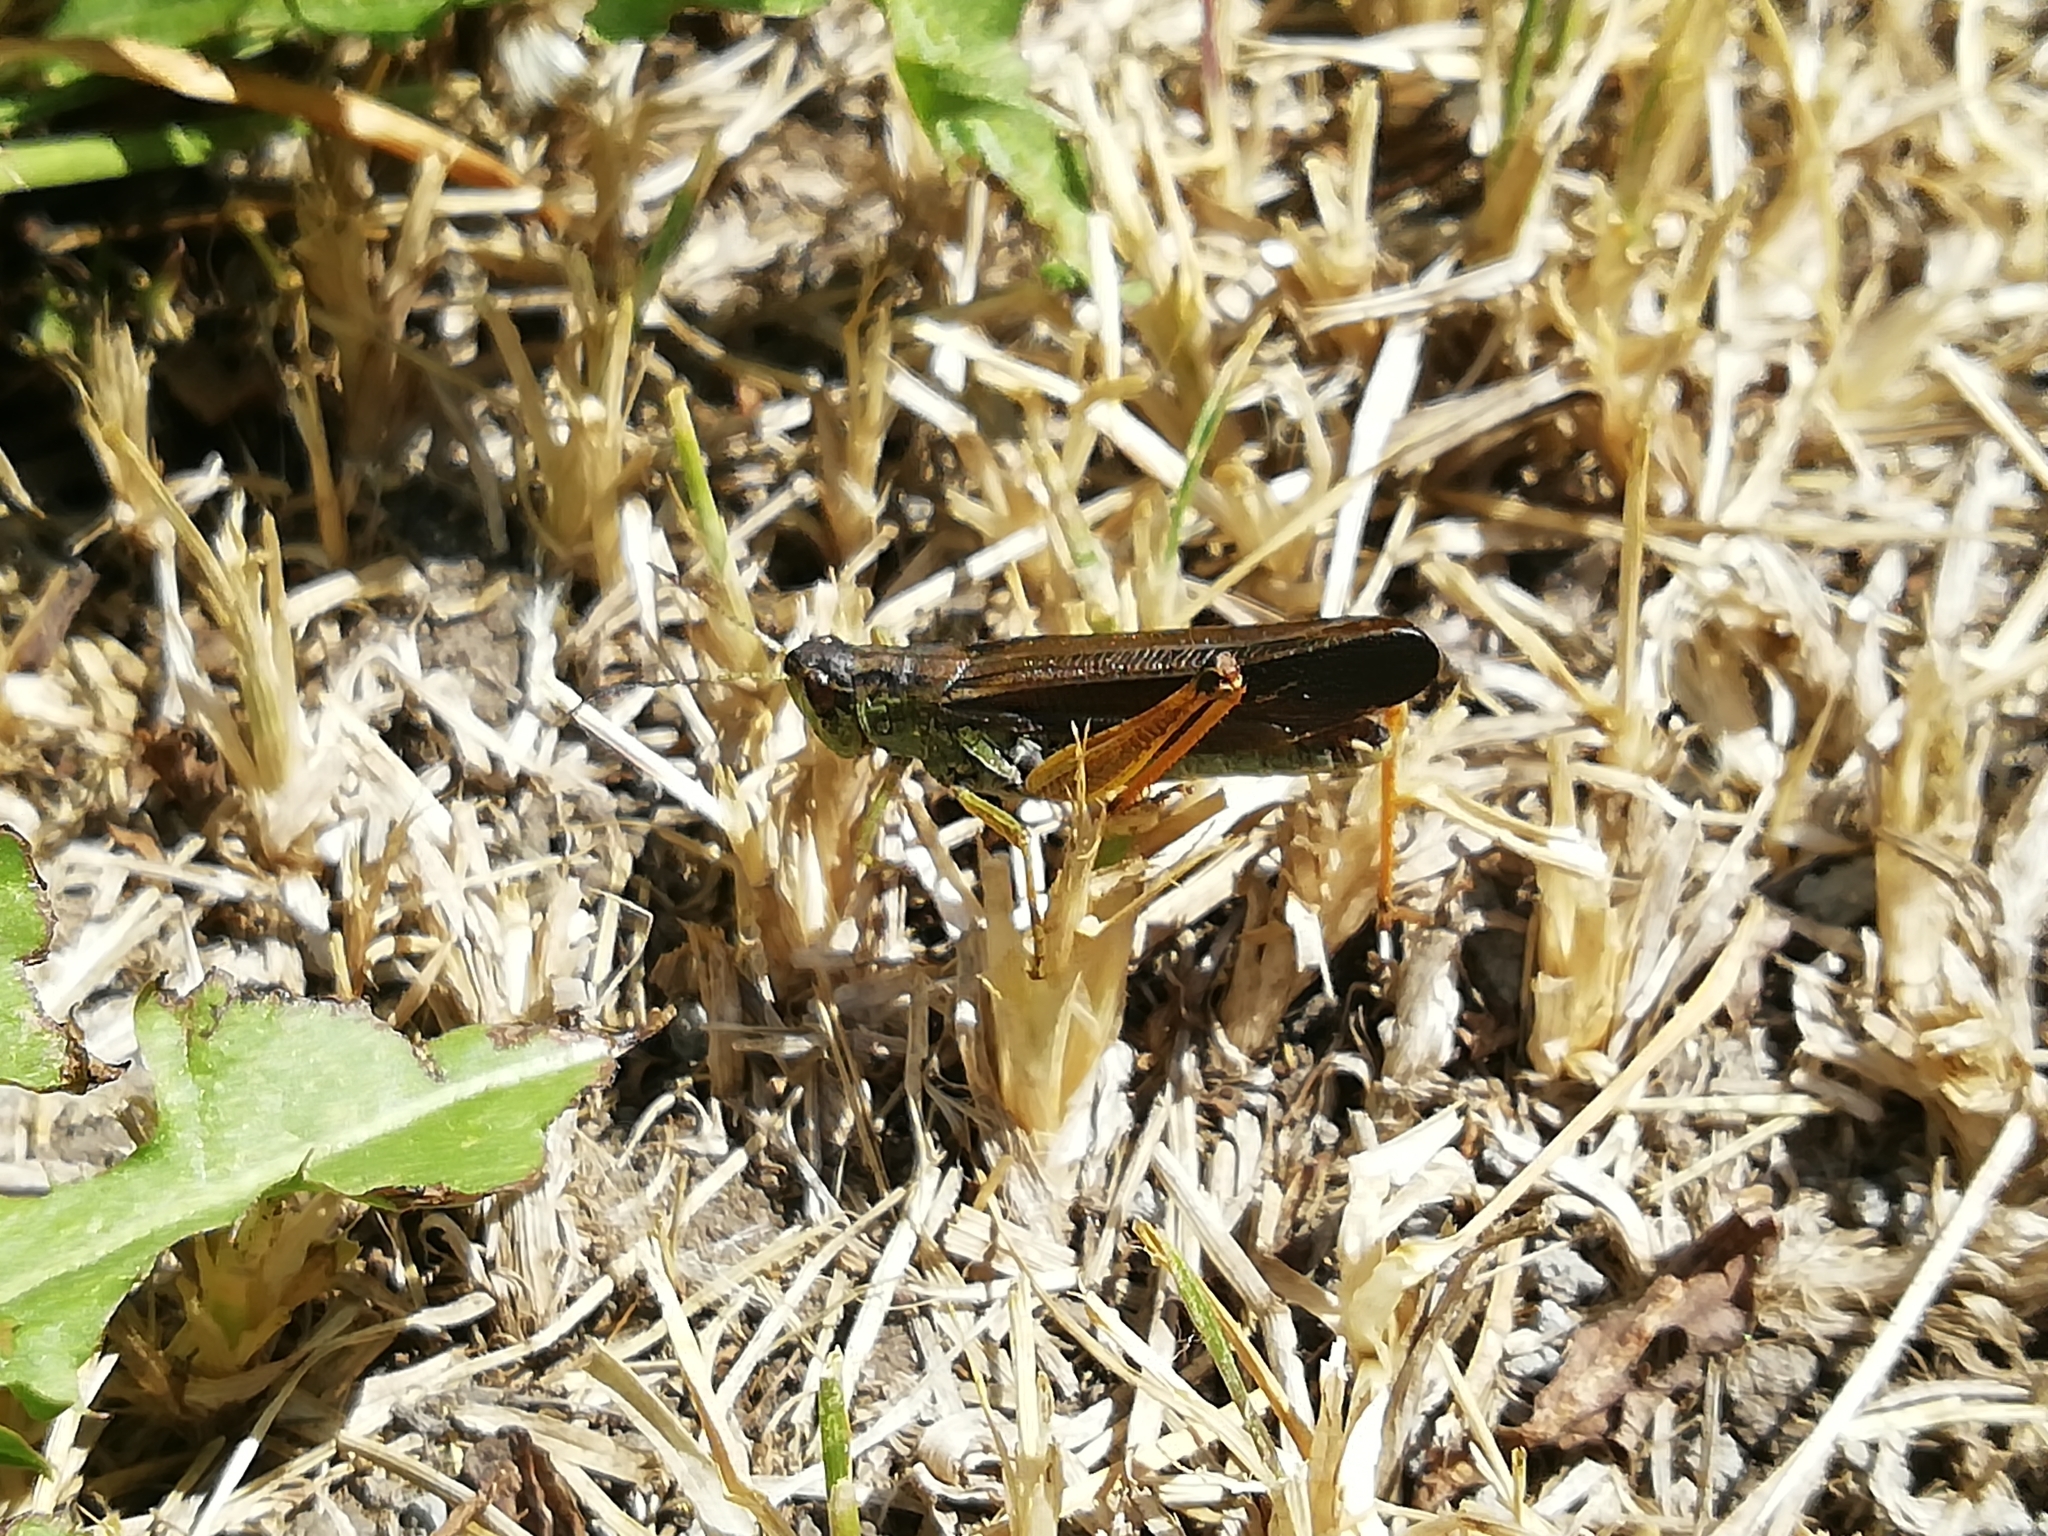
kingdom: Animalia
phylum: Arthropoda
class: Insecta
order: Orthoptera
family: Acrididae
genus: Stauroderus
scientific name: Stauroderus scalaris
